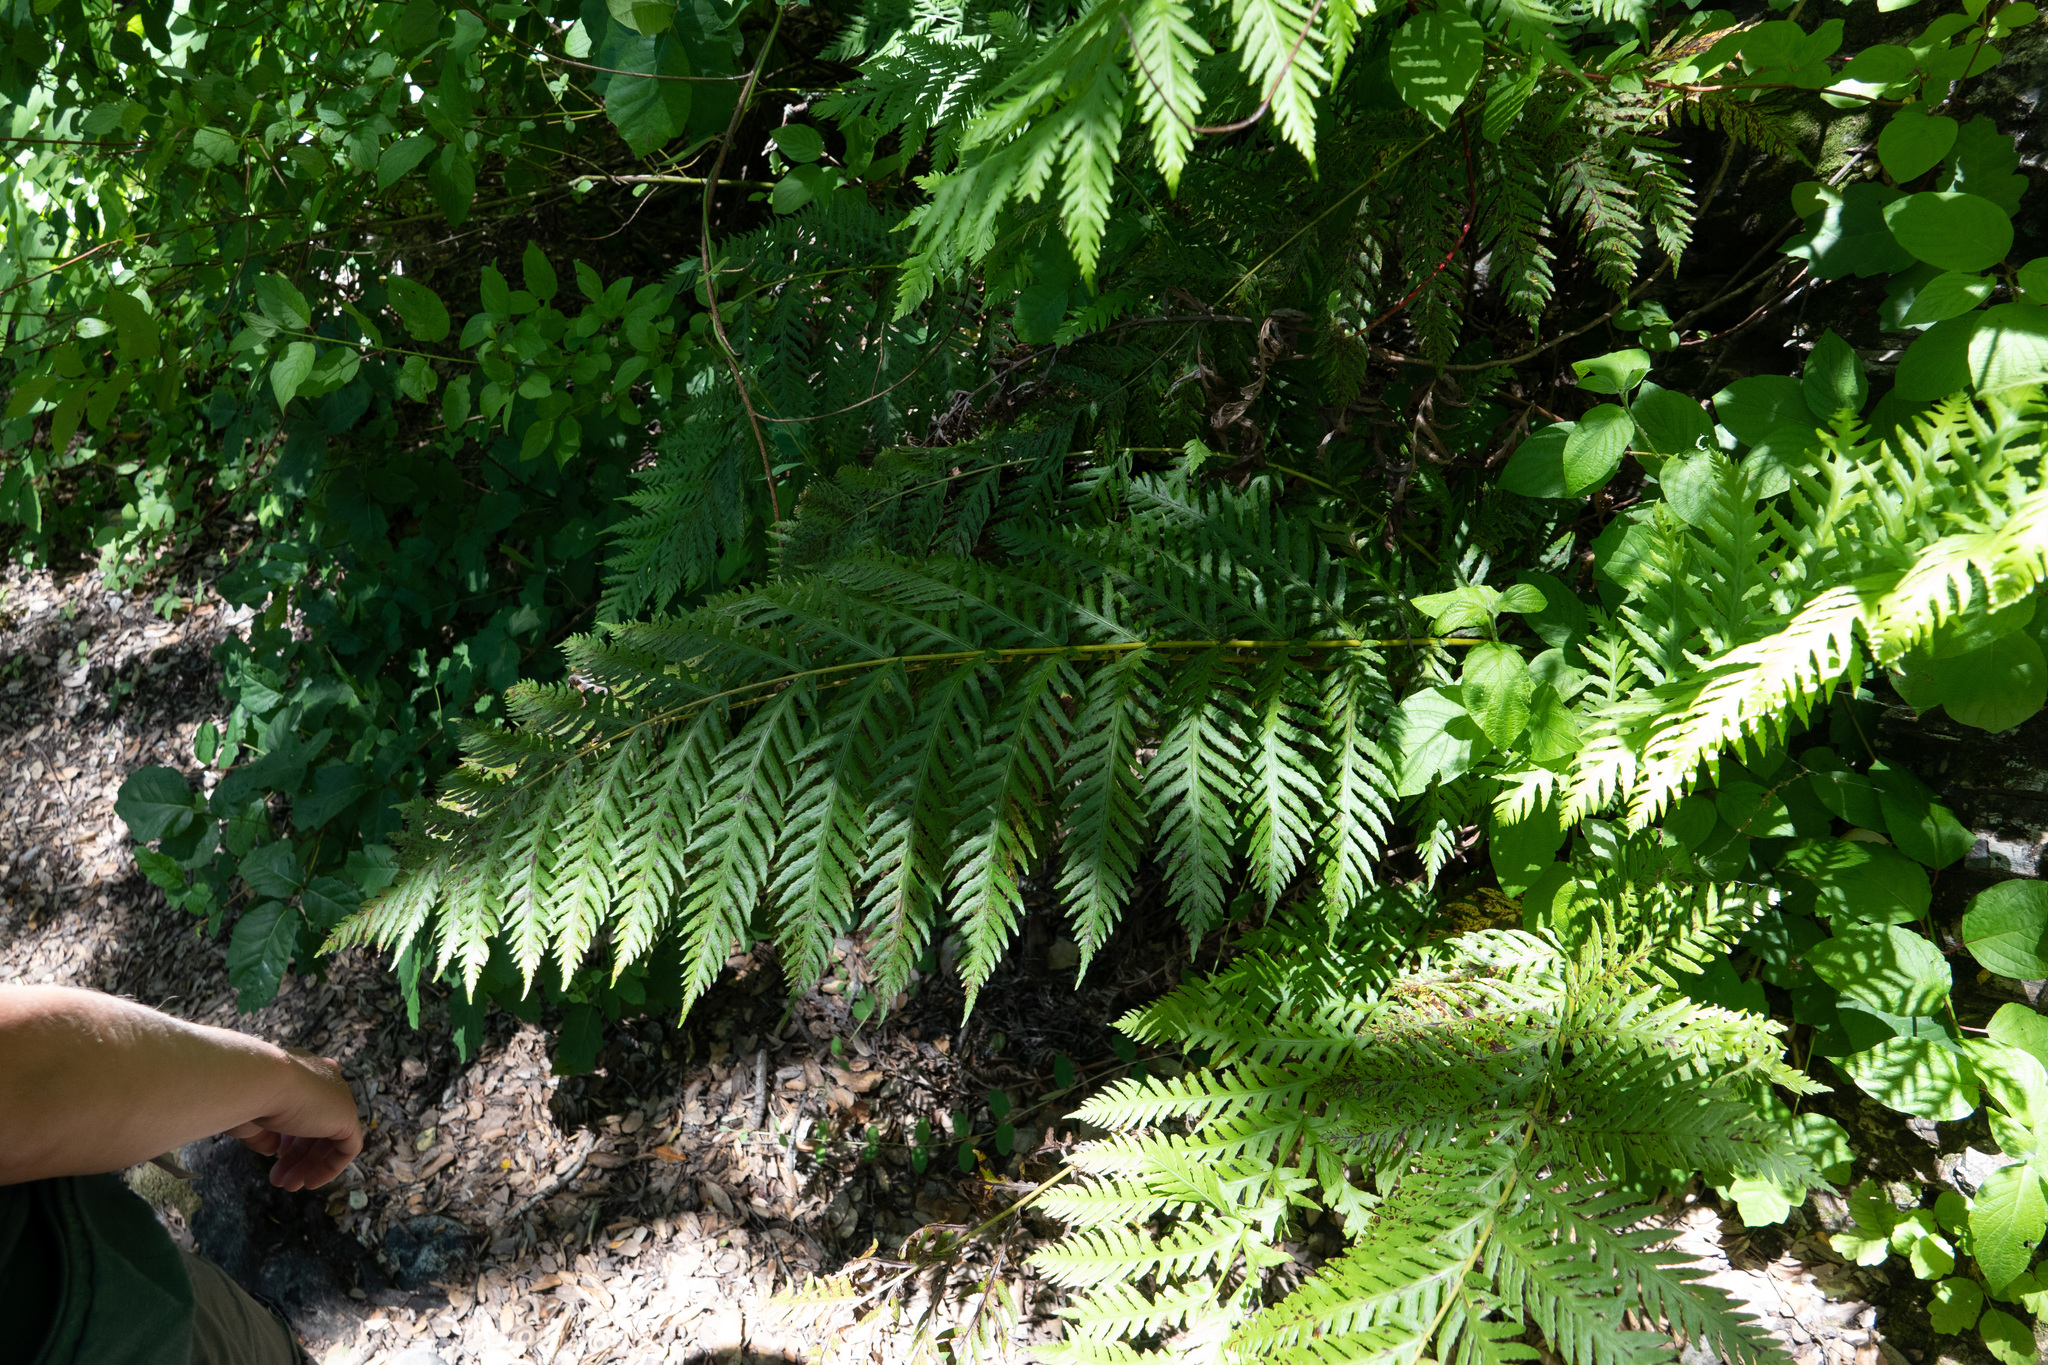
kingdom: Plantae
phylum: Tracheophyta
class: Polypodiopsida
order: Polypodiales
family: Blechnaceae
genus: Woodwardia
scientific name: Woodwardia fimbriata
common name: Giant chain fern
